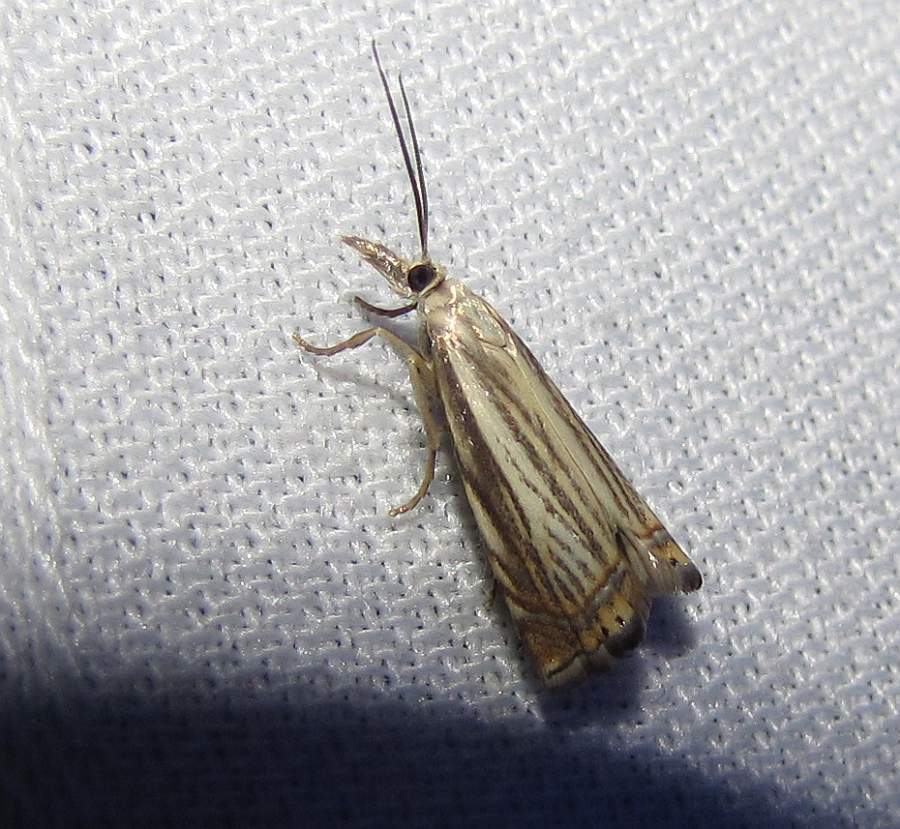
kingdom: Animalia
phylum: Arthropoda
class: Insecta
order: Lepidoptera
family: Crambidae
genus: Chrysoteuchia
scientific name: Chrysoteuchia topiarius
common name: Topiary grass-veneer
